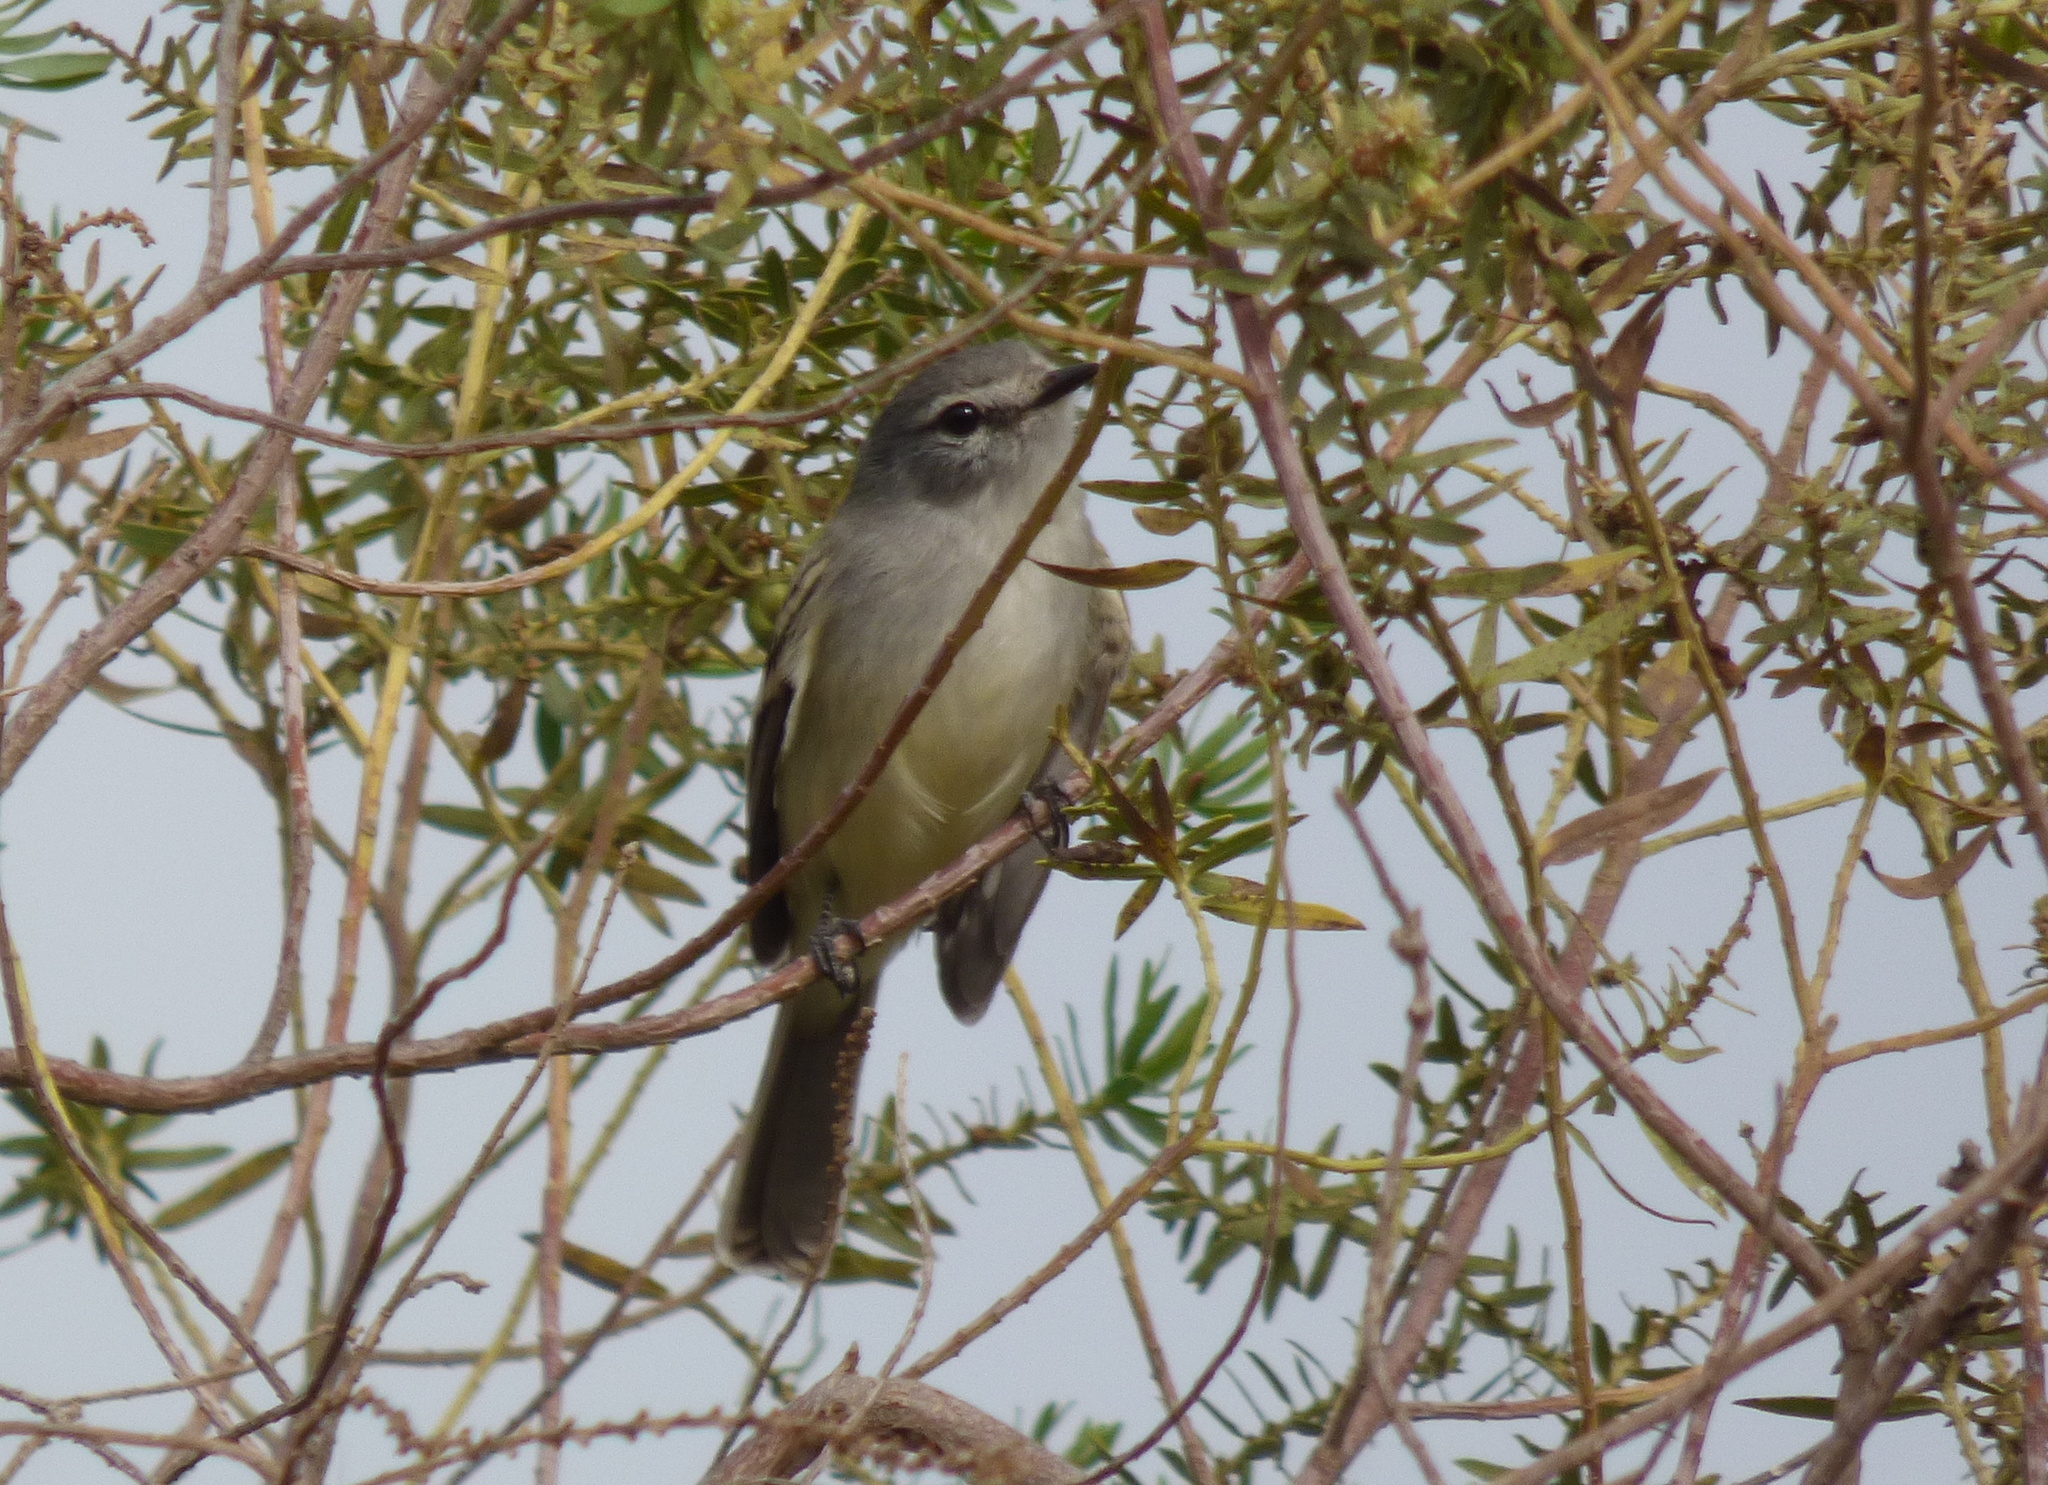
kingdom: Animalia
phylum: Chordata
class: Aves
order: Passeriformes
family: Tyrannidae
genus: Serpophaga
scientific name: Serpophaga subcristata
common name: White-crested tyrannulet
